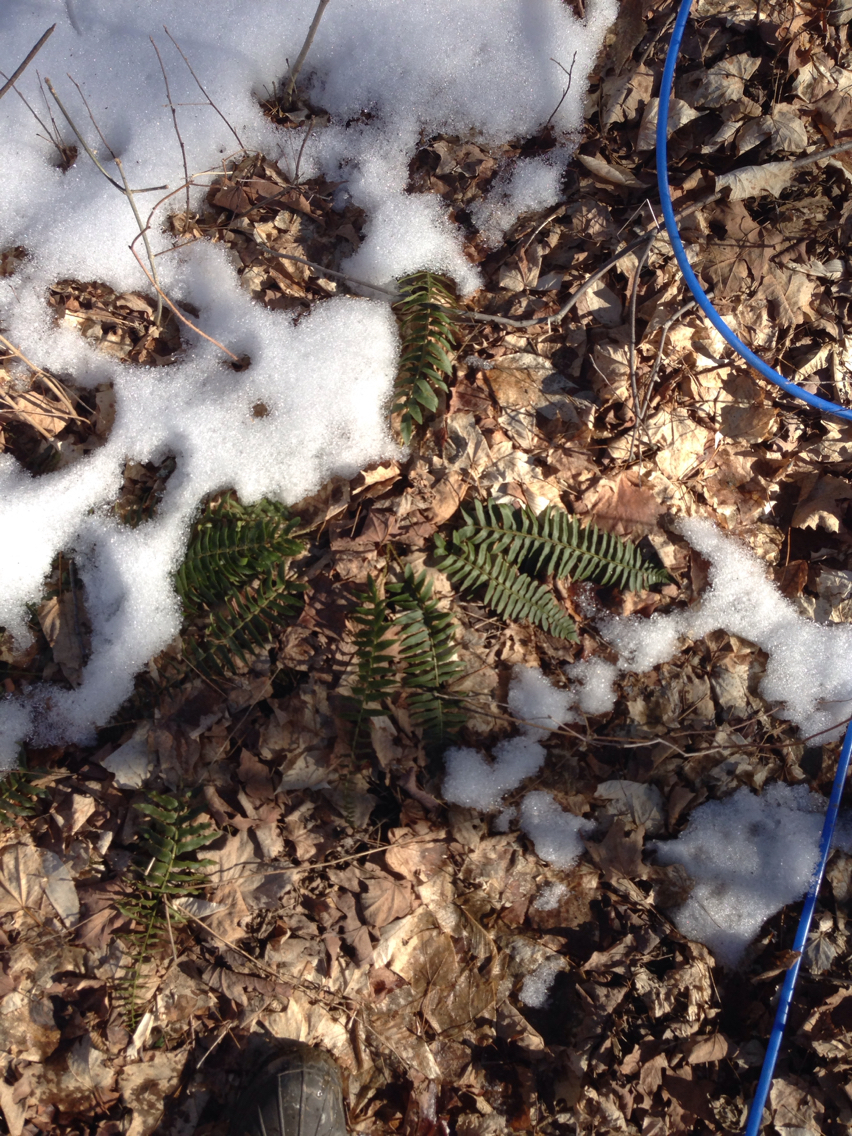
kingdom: Plantae
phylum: Tracheophyta
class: Polypodiopsida
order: Polypodiales
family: Dryopteridaceae
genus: Polystichum
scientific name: Polystichum acrostichoides
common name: Christmas fern
